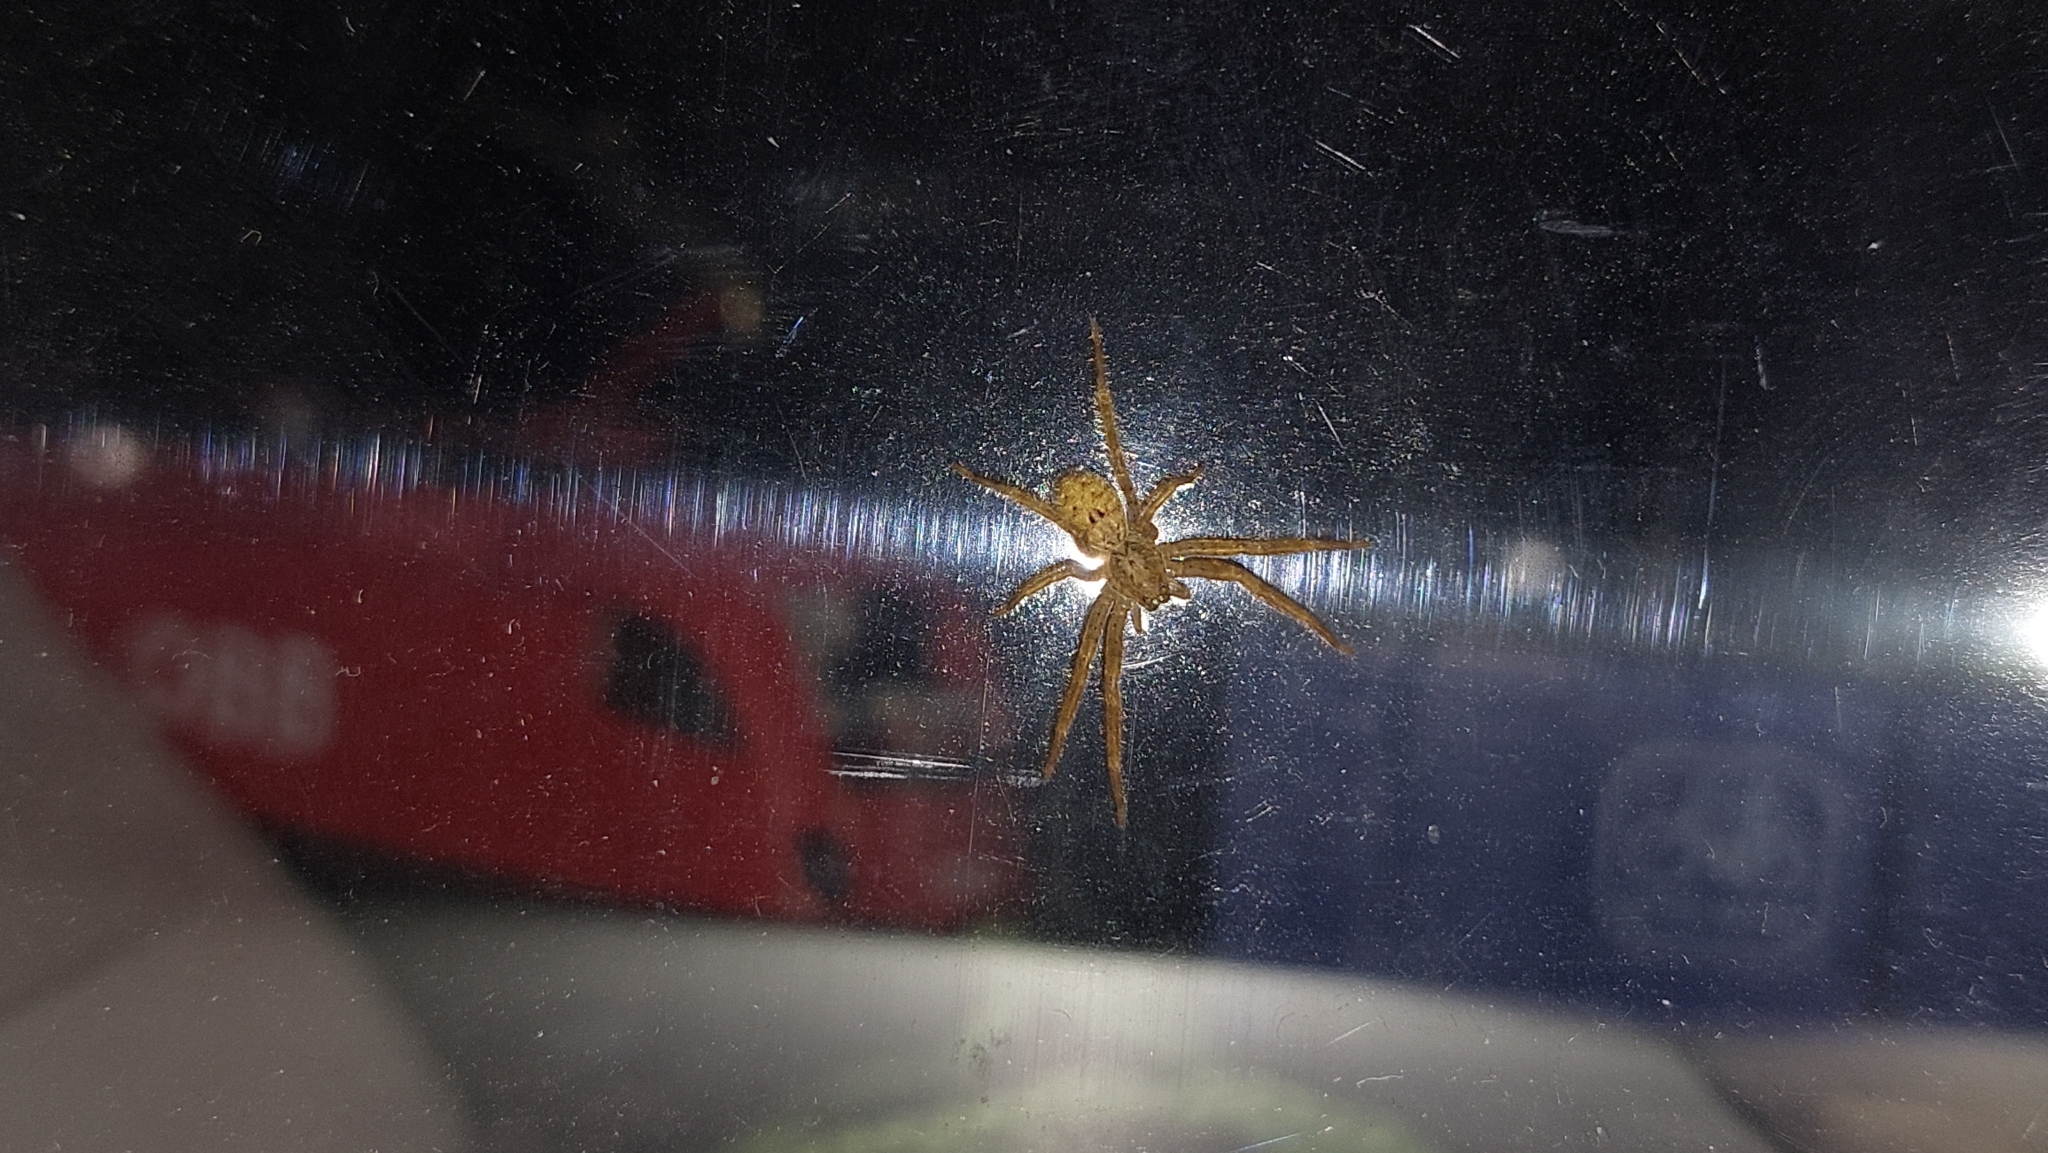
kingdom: Animalia
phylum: Arthropoda
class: Arachnida
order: Araneae
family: Zoropsidae
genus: Zoropsis
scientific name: Zoropsis spinimana
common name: Zoropsid spider
